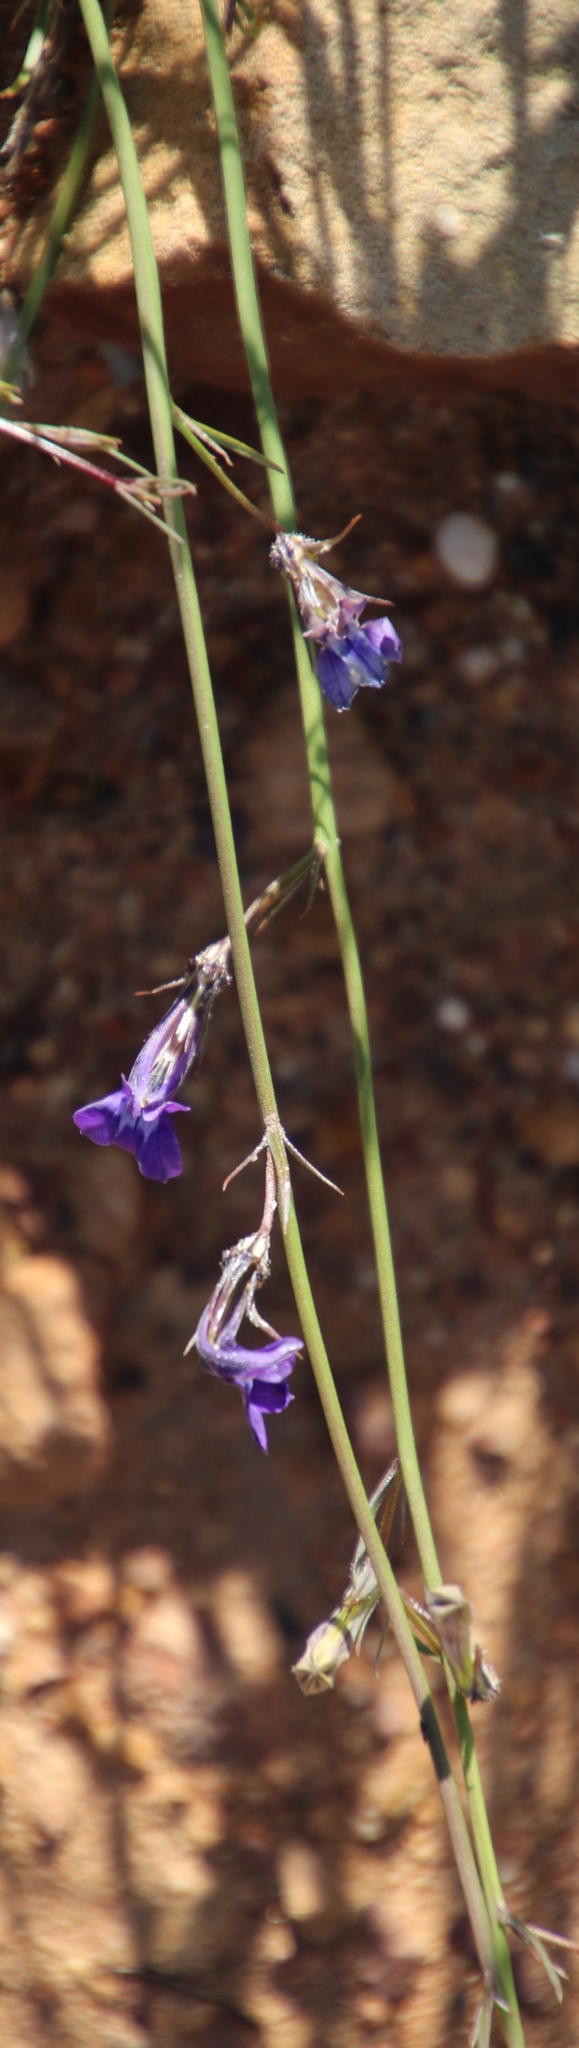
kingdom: Plantae
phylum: Tracheophyta
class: Magnoliopsida
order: Asterales
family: Campanulaceae
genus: Lobelia
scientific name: Lobelia linearis
